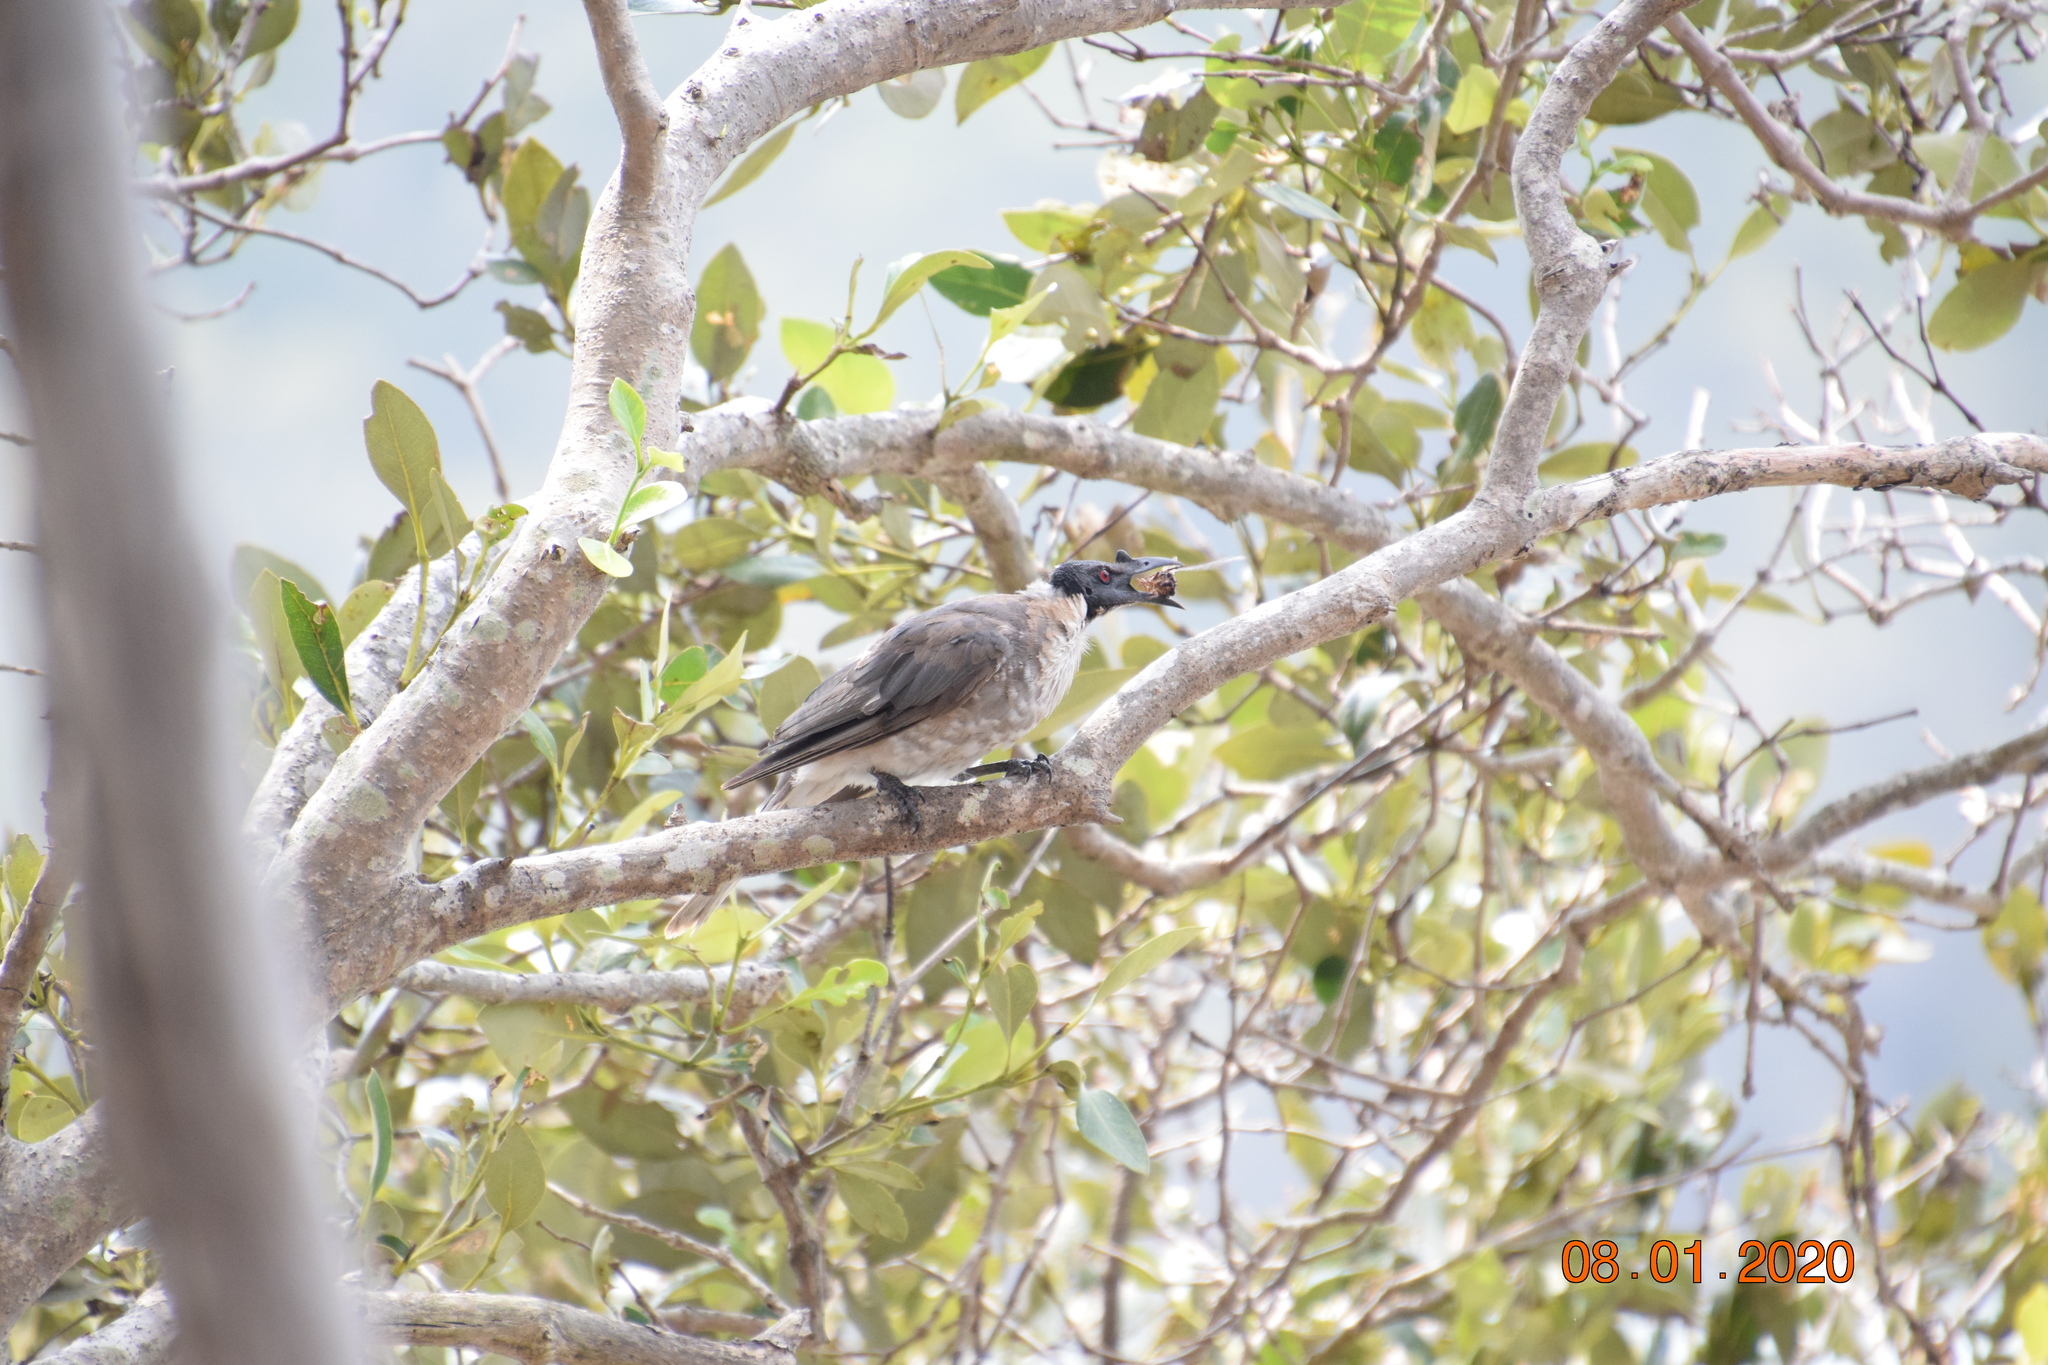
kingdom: Animalia
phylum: Chordata
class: Aves
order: Passeriformes
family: Meliphagidae
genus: Philemon
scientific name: Philemon corniculatus
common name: Noisy friarbird
